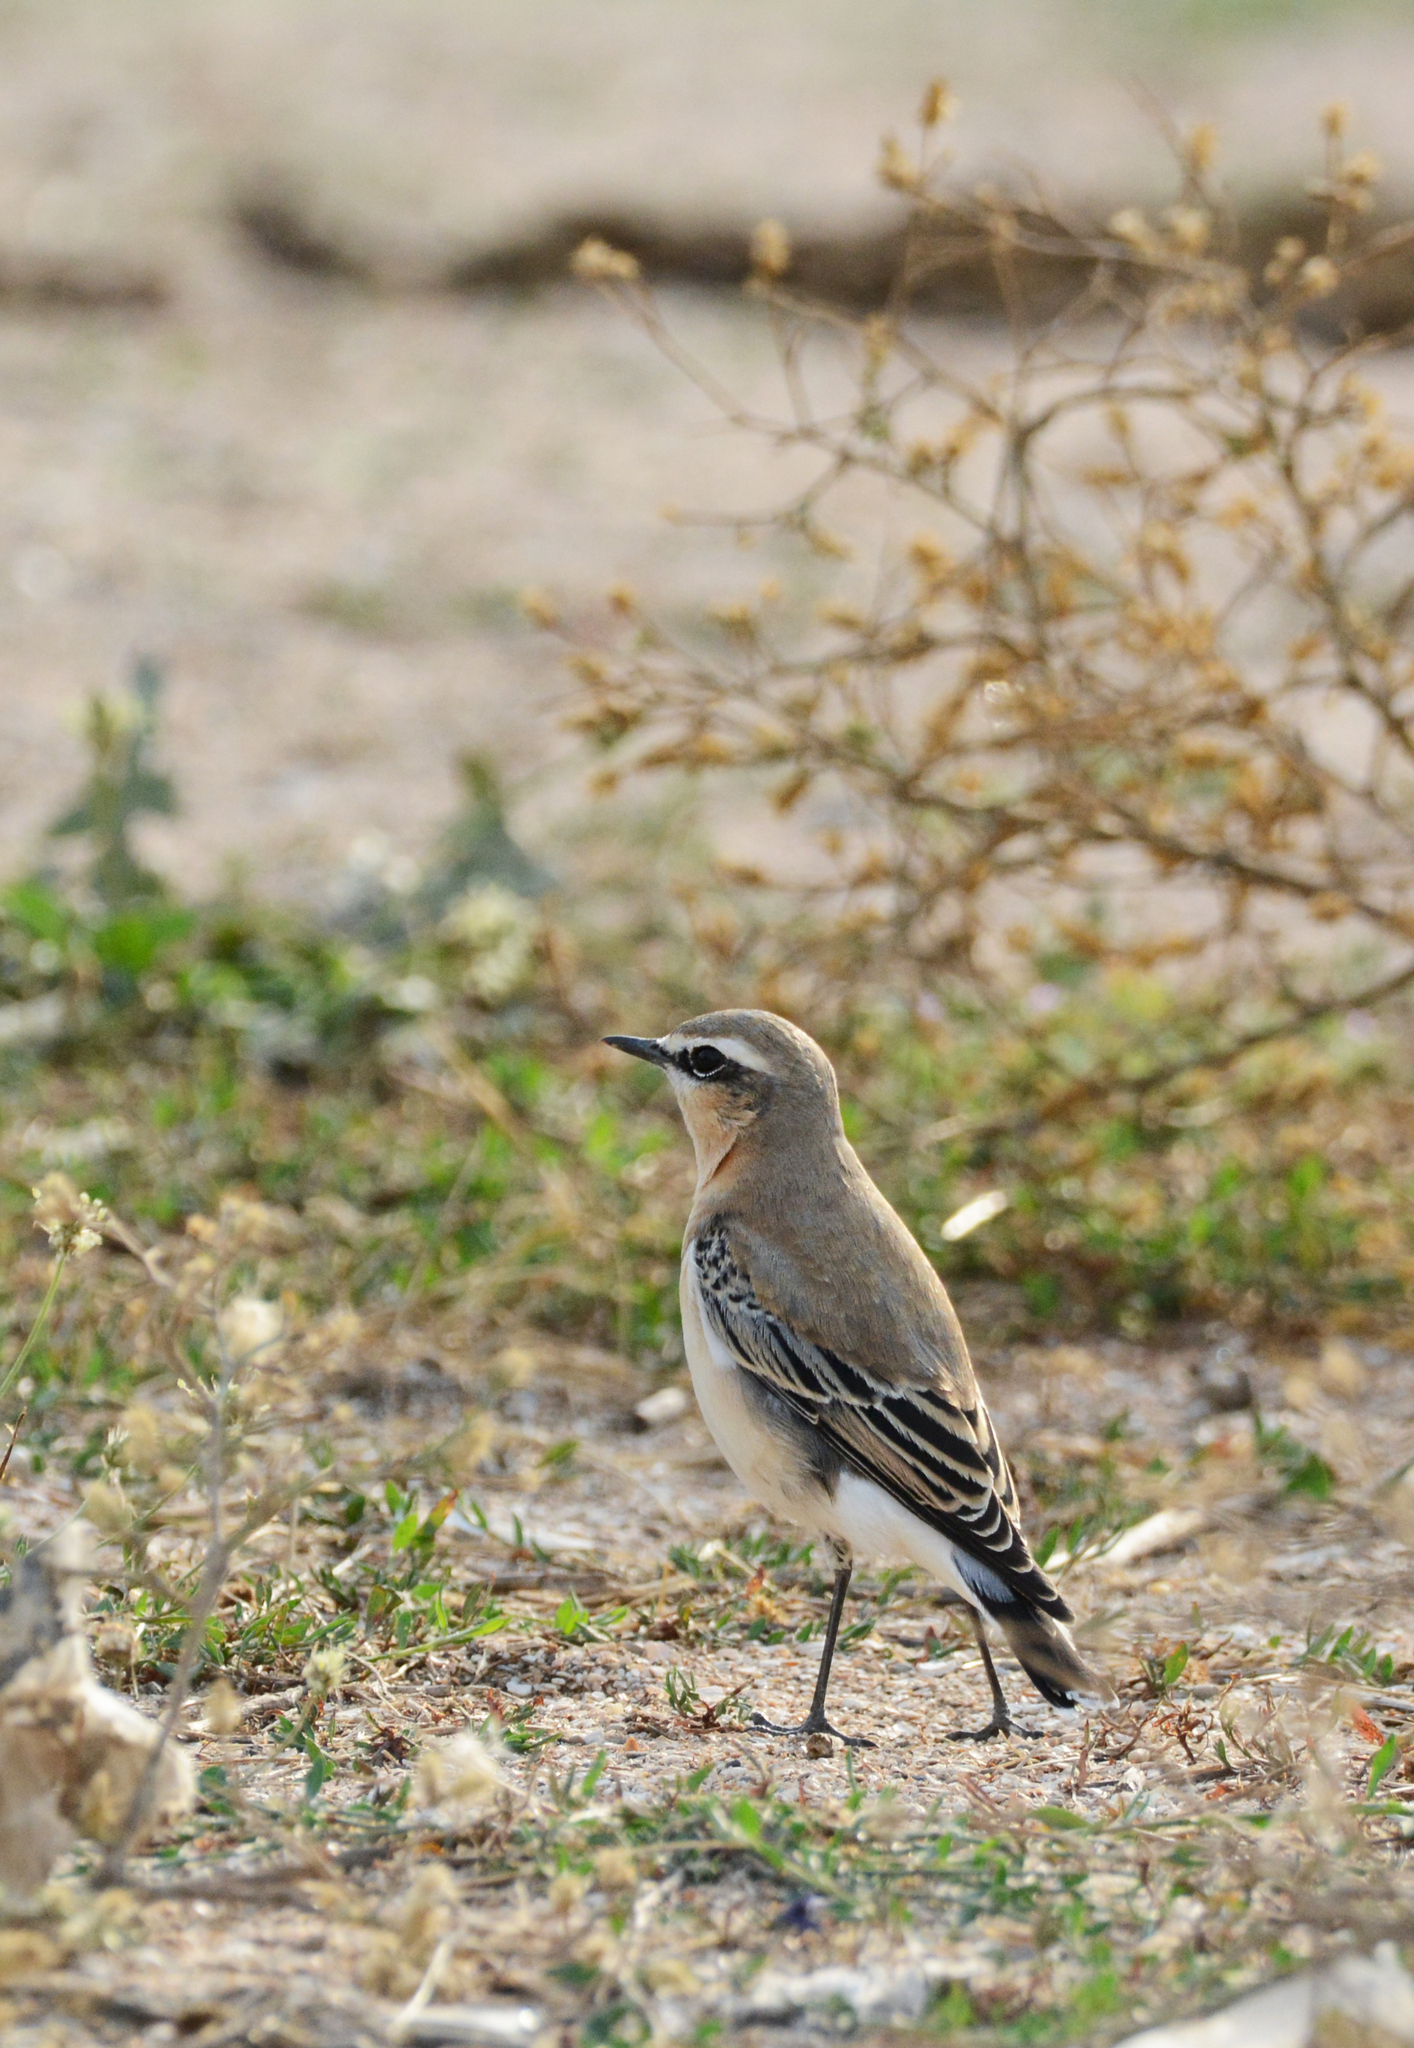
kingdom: Animalia
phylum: Chordata
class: Aves
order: Passeriformes
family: Muscicapidae
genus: Oenanthe
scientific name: Oenanthe oenanthe
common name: Northern wheatear
